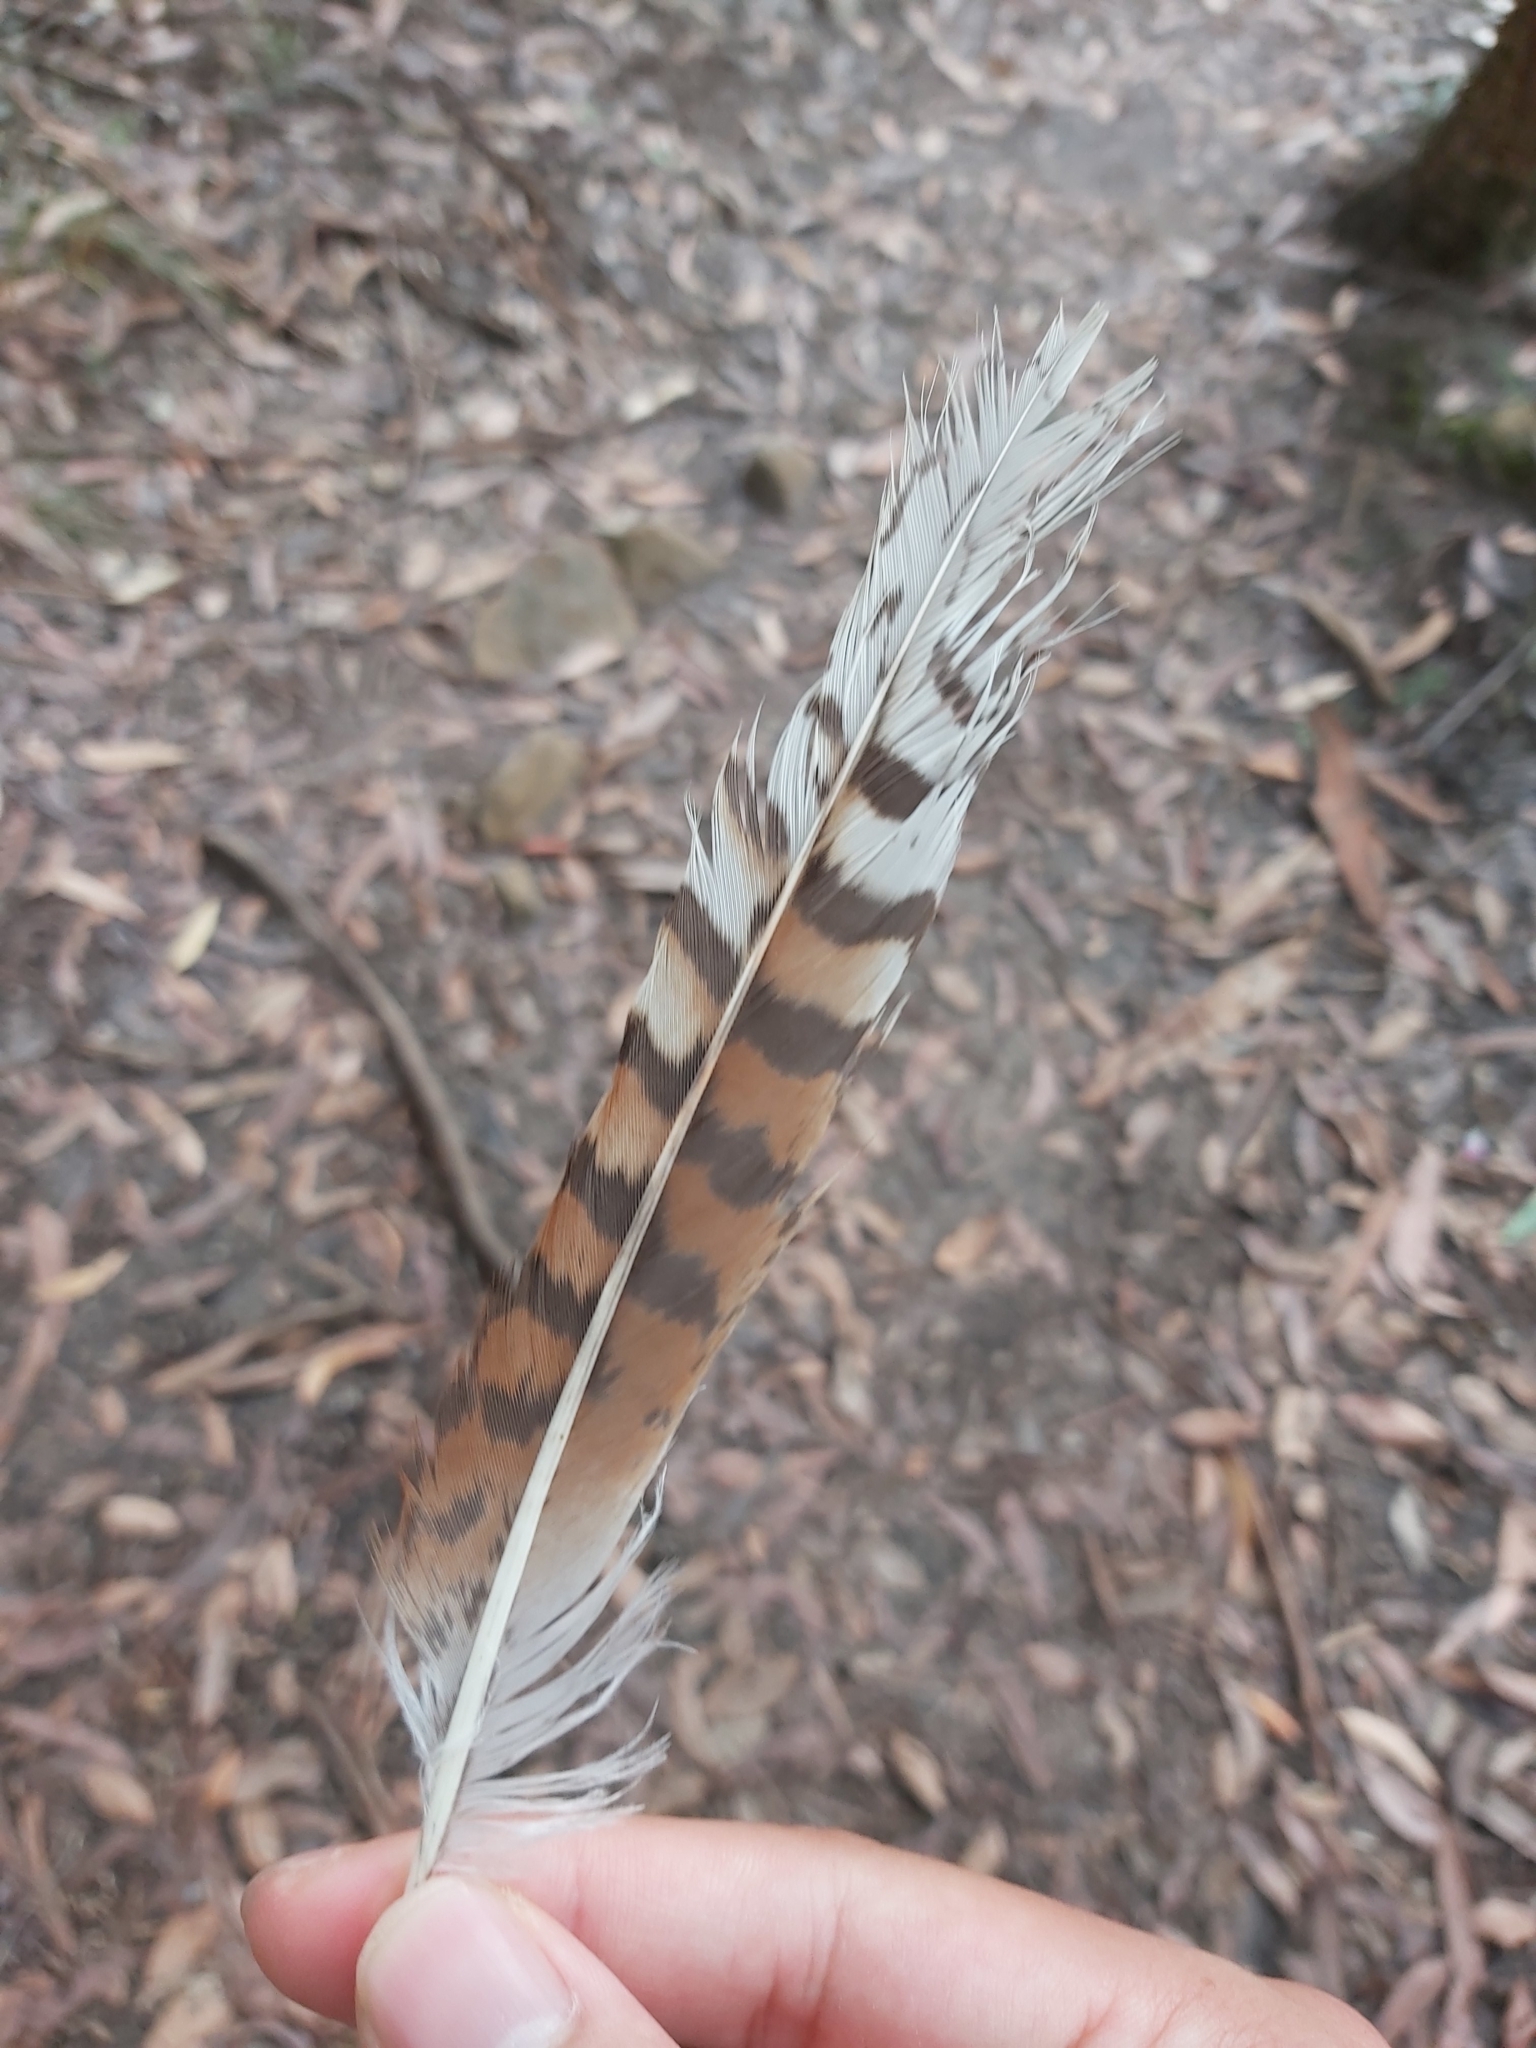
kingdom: Animalia
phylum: Chordata
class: Aves
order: Coraciiformes
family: Alcedinidae
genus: Dacelo
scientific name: Dacelo novaeguineae
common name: Laughing kookaburra
